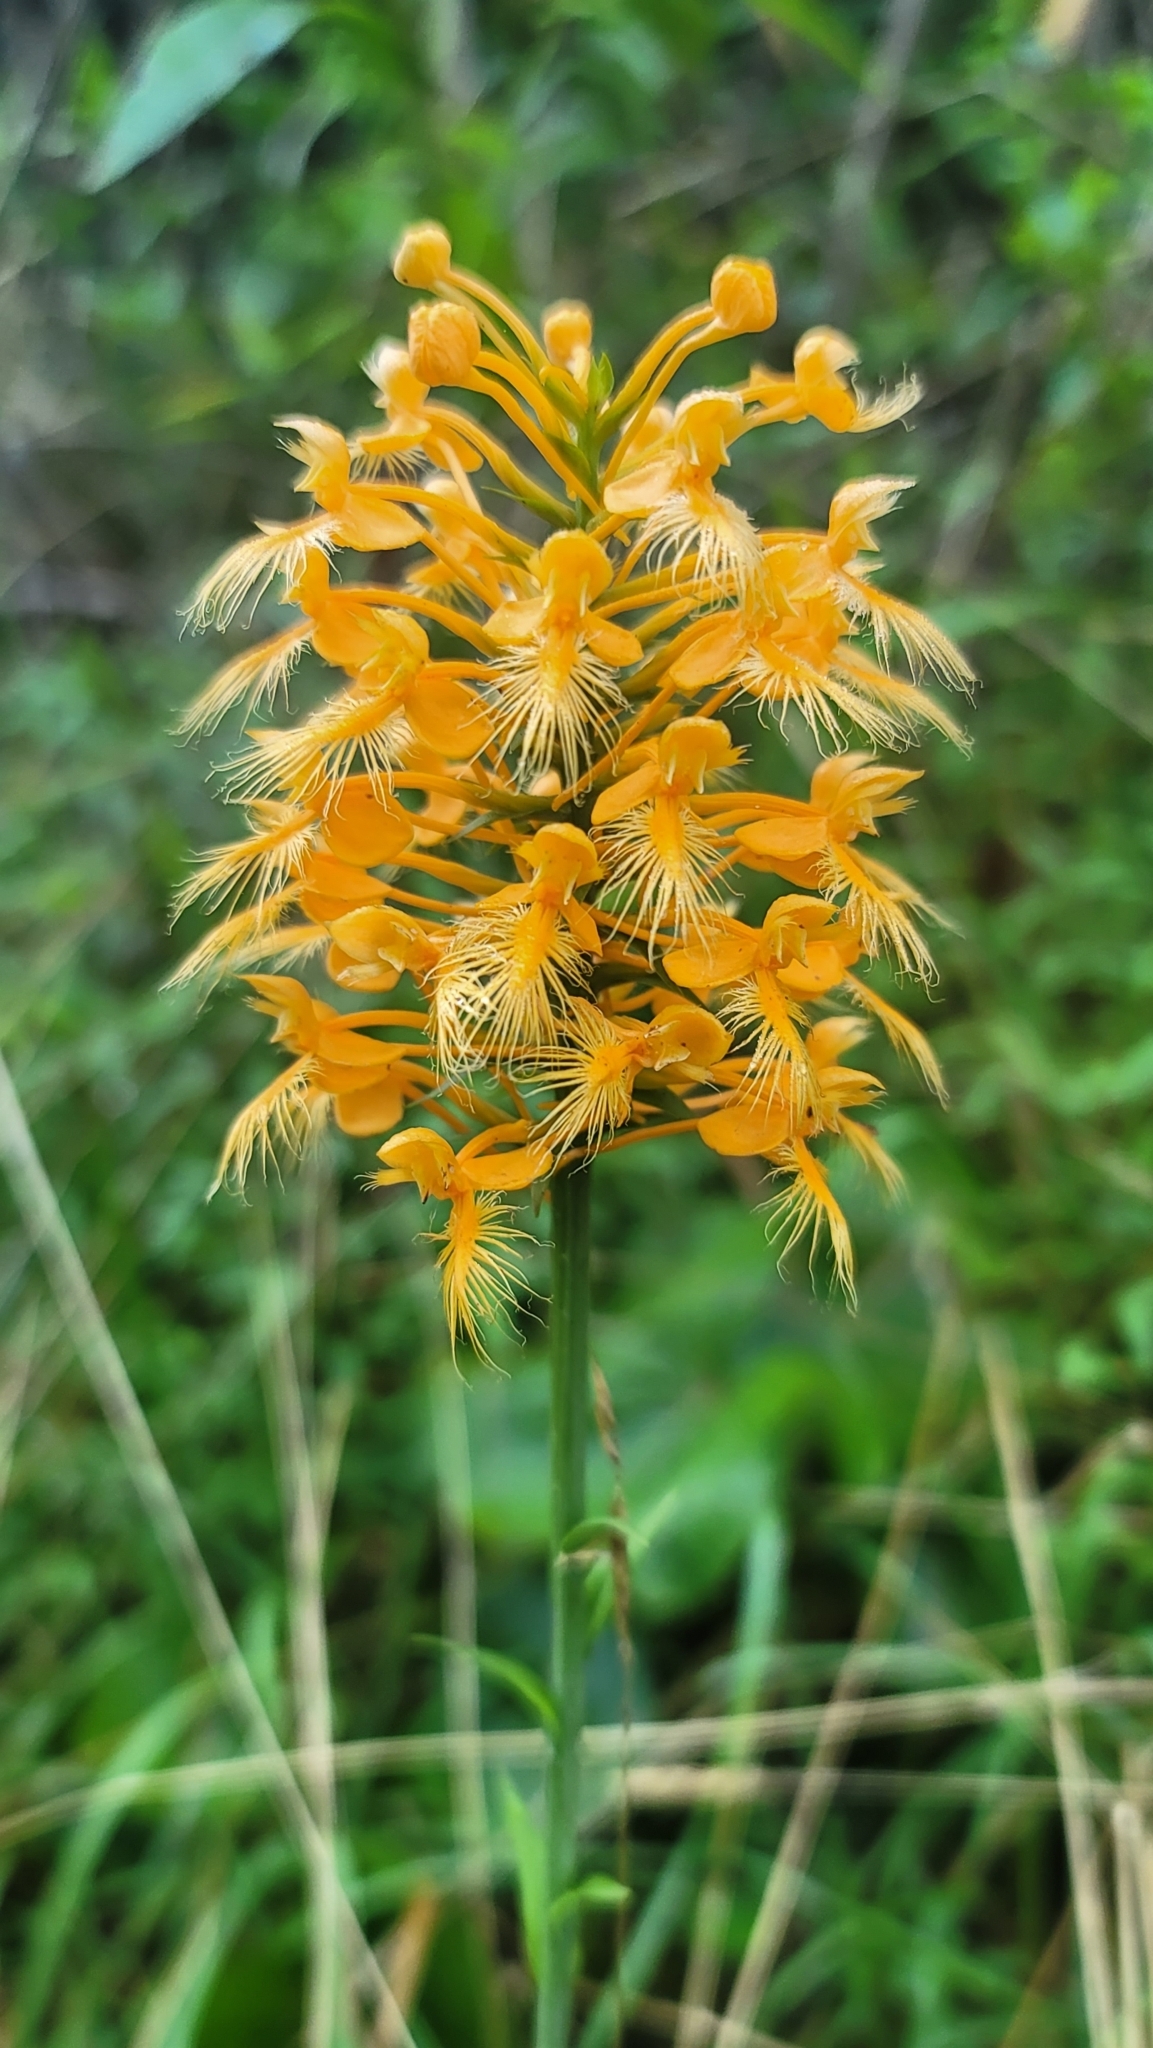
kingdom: Plantae
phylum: Tracheophyta
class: Liliopsida
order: Asparagales
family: Orchidaceae
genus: Platanthera
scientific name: Platanthera ciliaris
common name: Yellow fringed orchid
